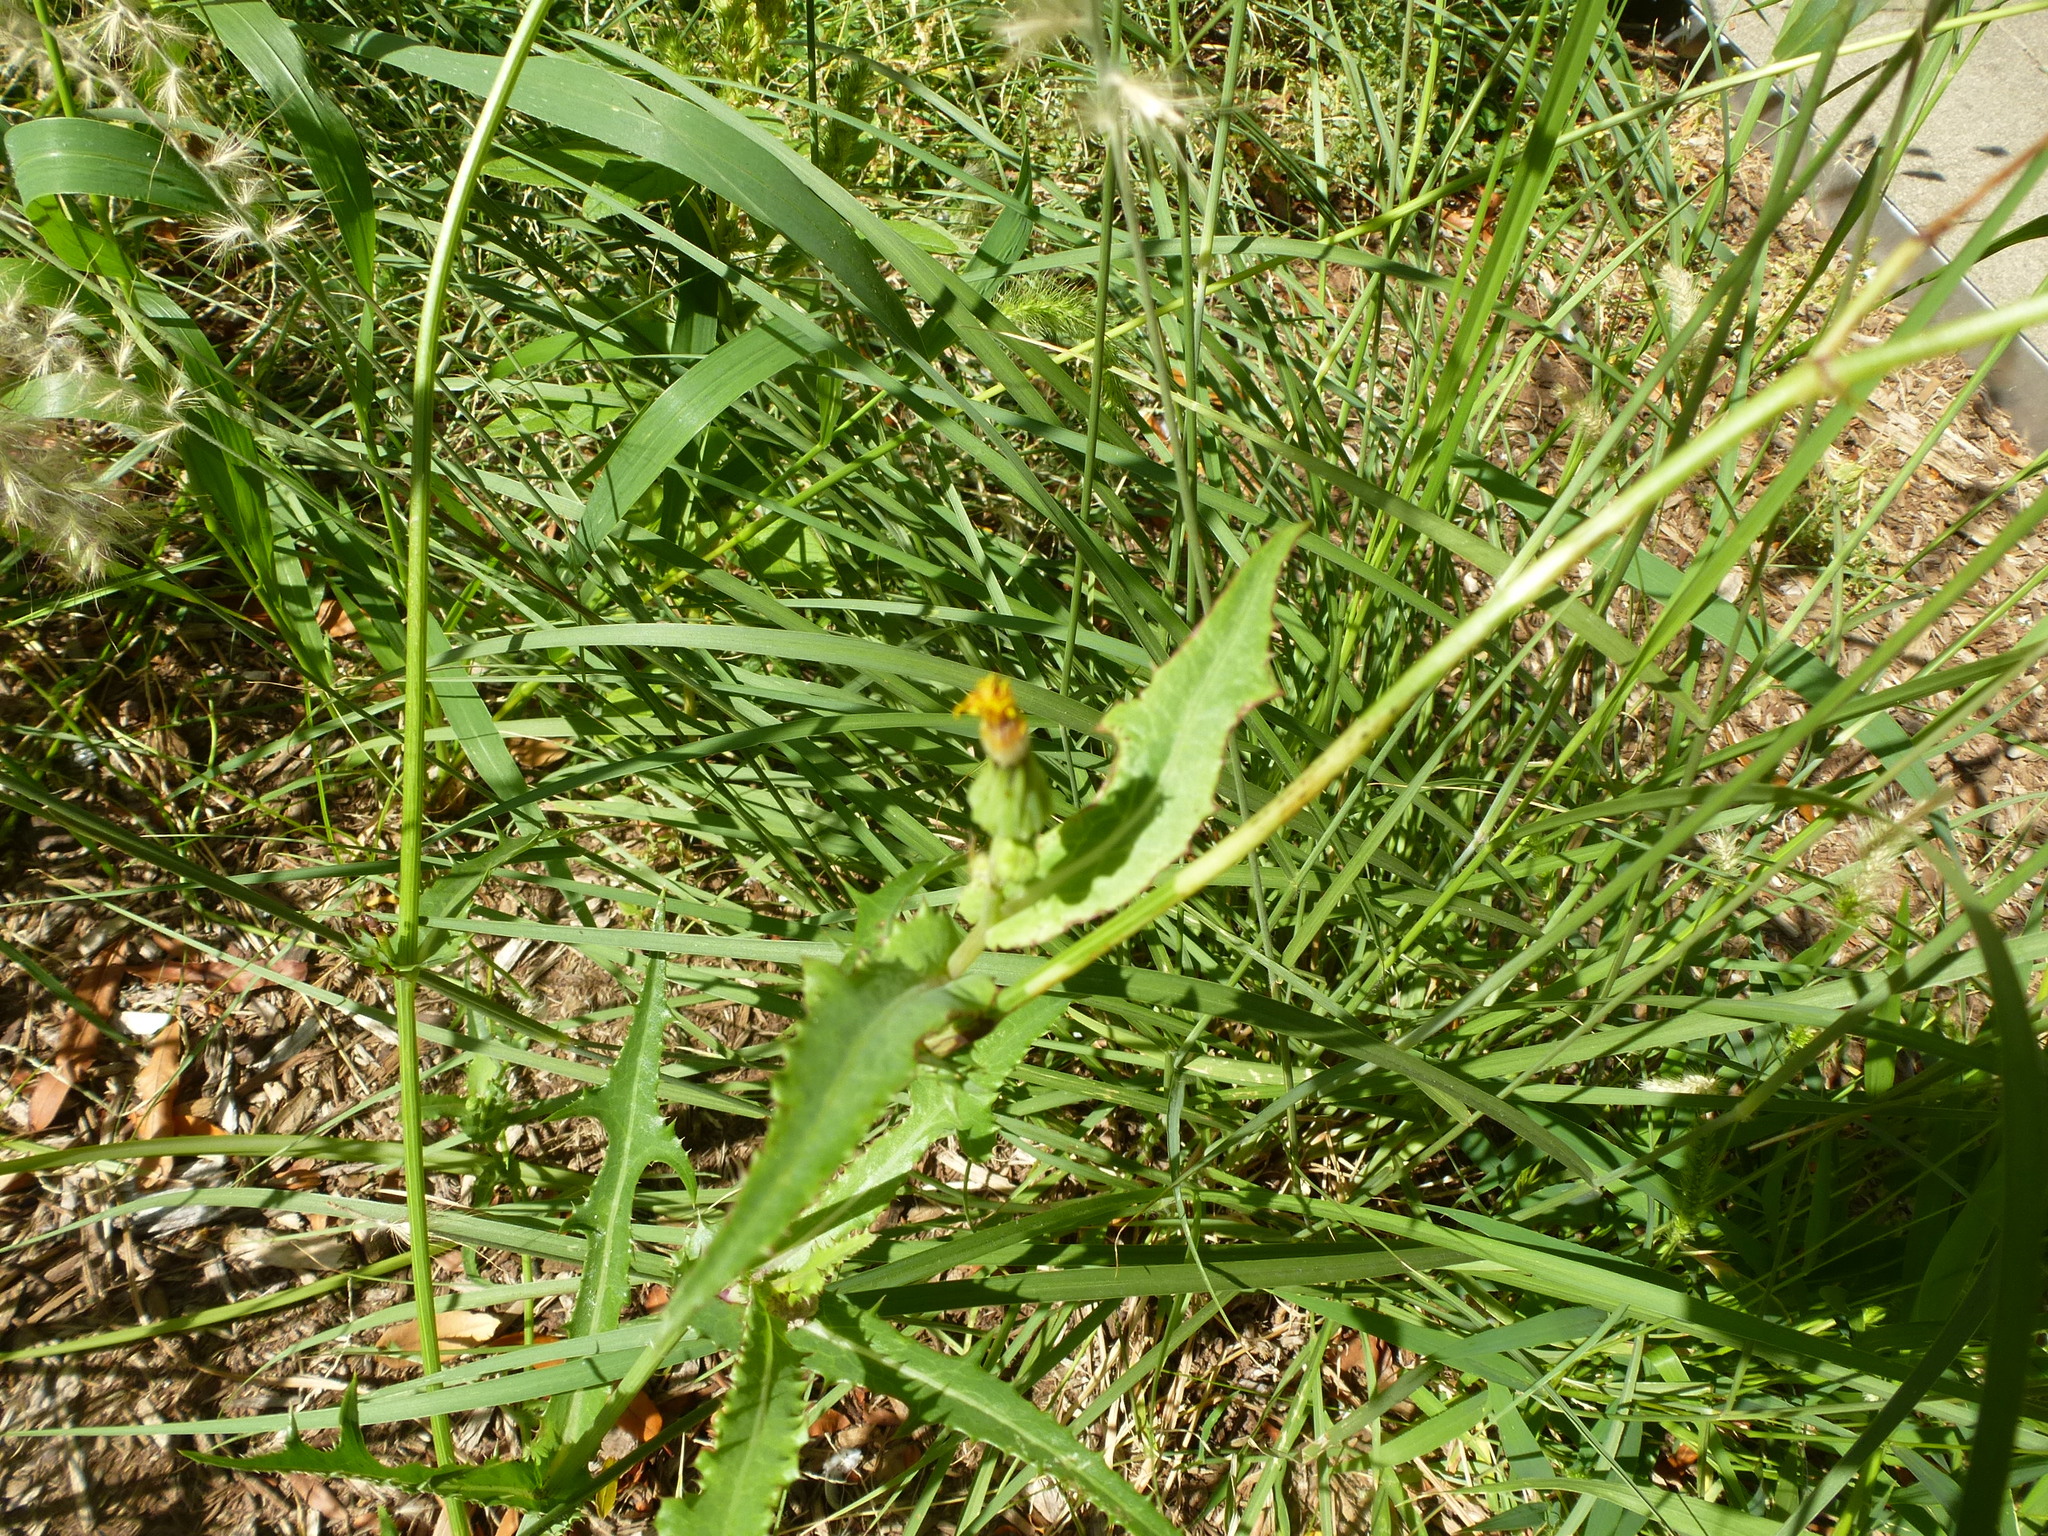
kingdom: Plantae
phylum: Tracheophyta
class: Magnoliopsida
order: Asterales
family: Asteraceae
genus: Sonchus
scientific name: Sonchus arvensis
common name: Perennial sow-thistle
